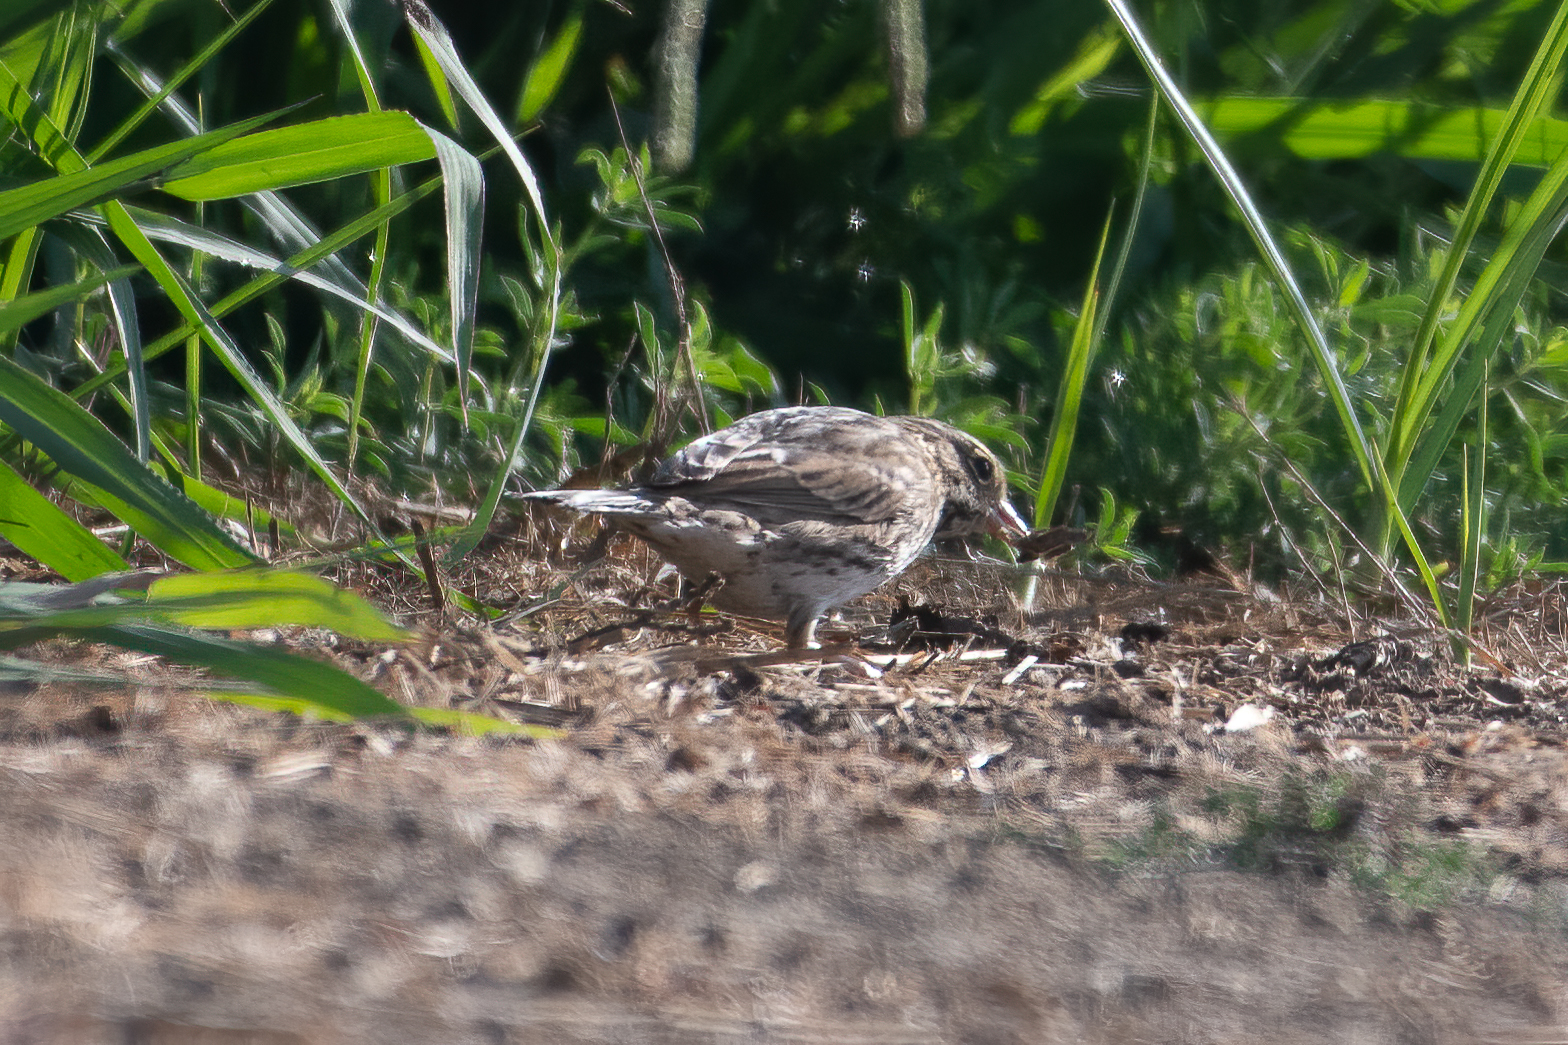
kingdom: Animalia
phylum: Chordata
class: Aves
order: Passeriformes
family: Passerellidae
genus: Passerculus
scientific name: Passerculus sandwichensis
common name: Savannah sparrow
